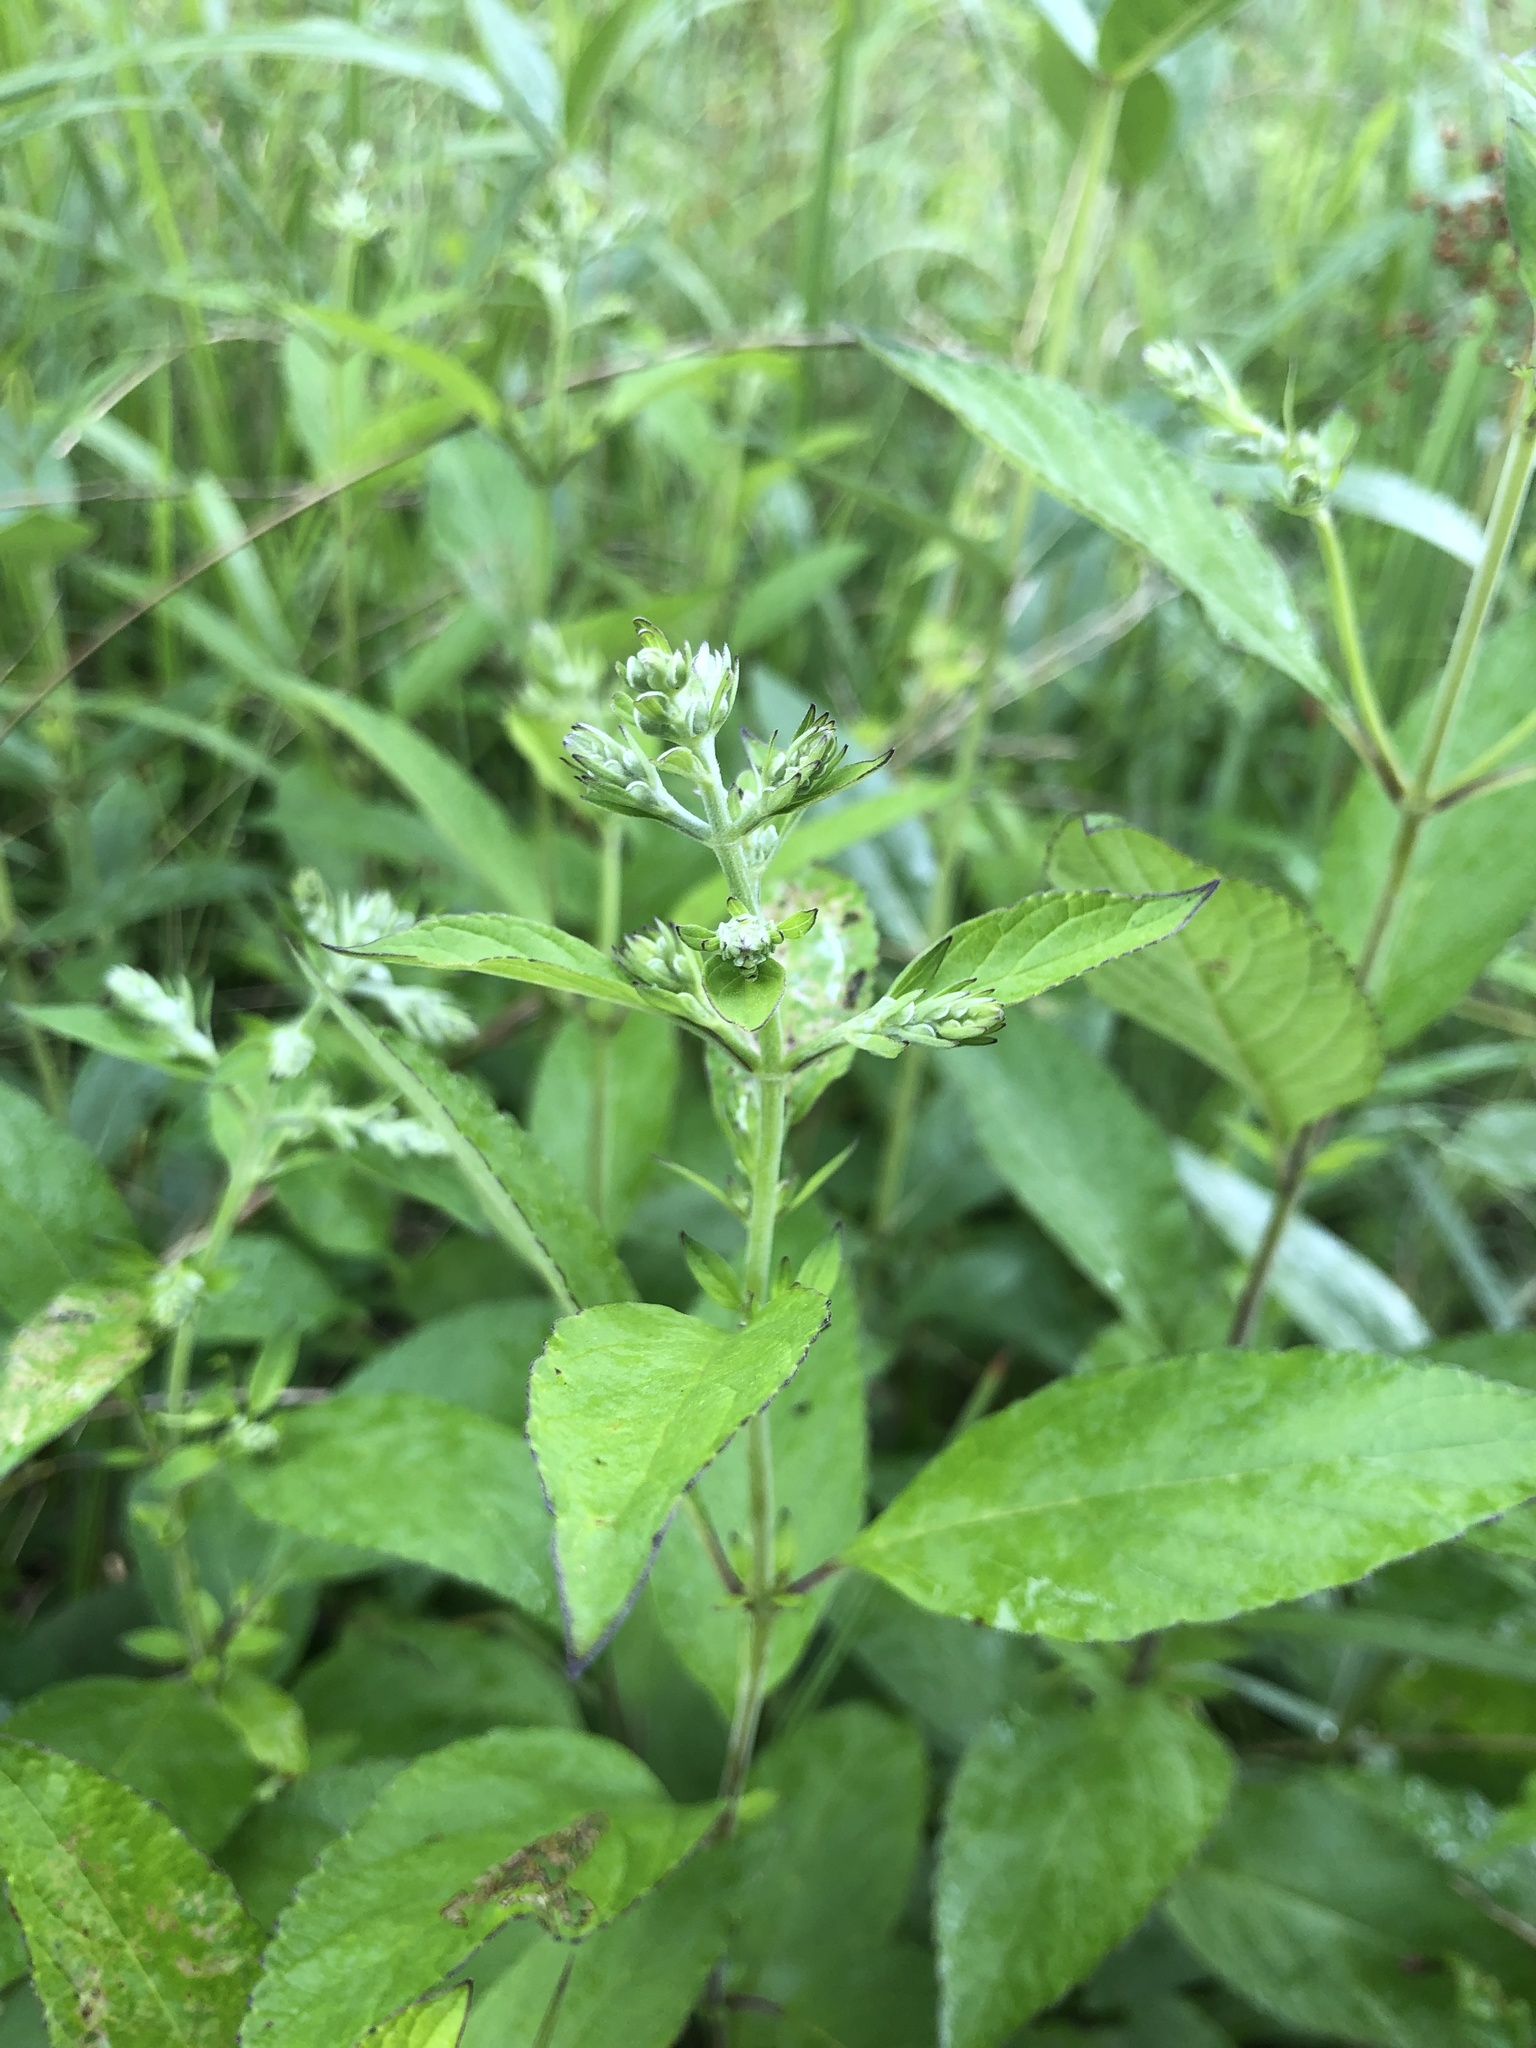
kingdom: Plantae
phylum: Tracheophyta
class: Magnoliopsida
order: Lamiales
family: Lamiaceae
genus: Scutellaria
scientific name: Scutellaria incana
